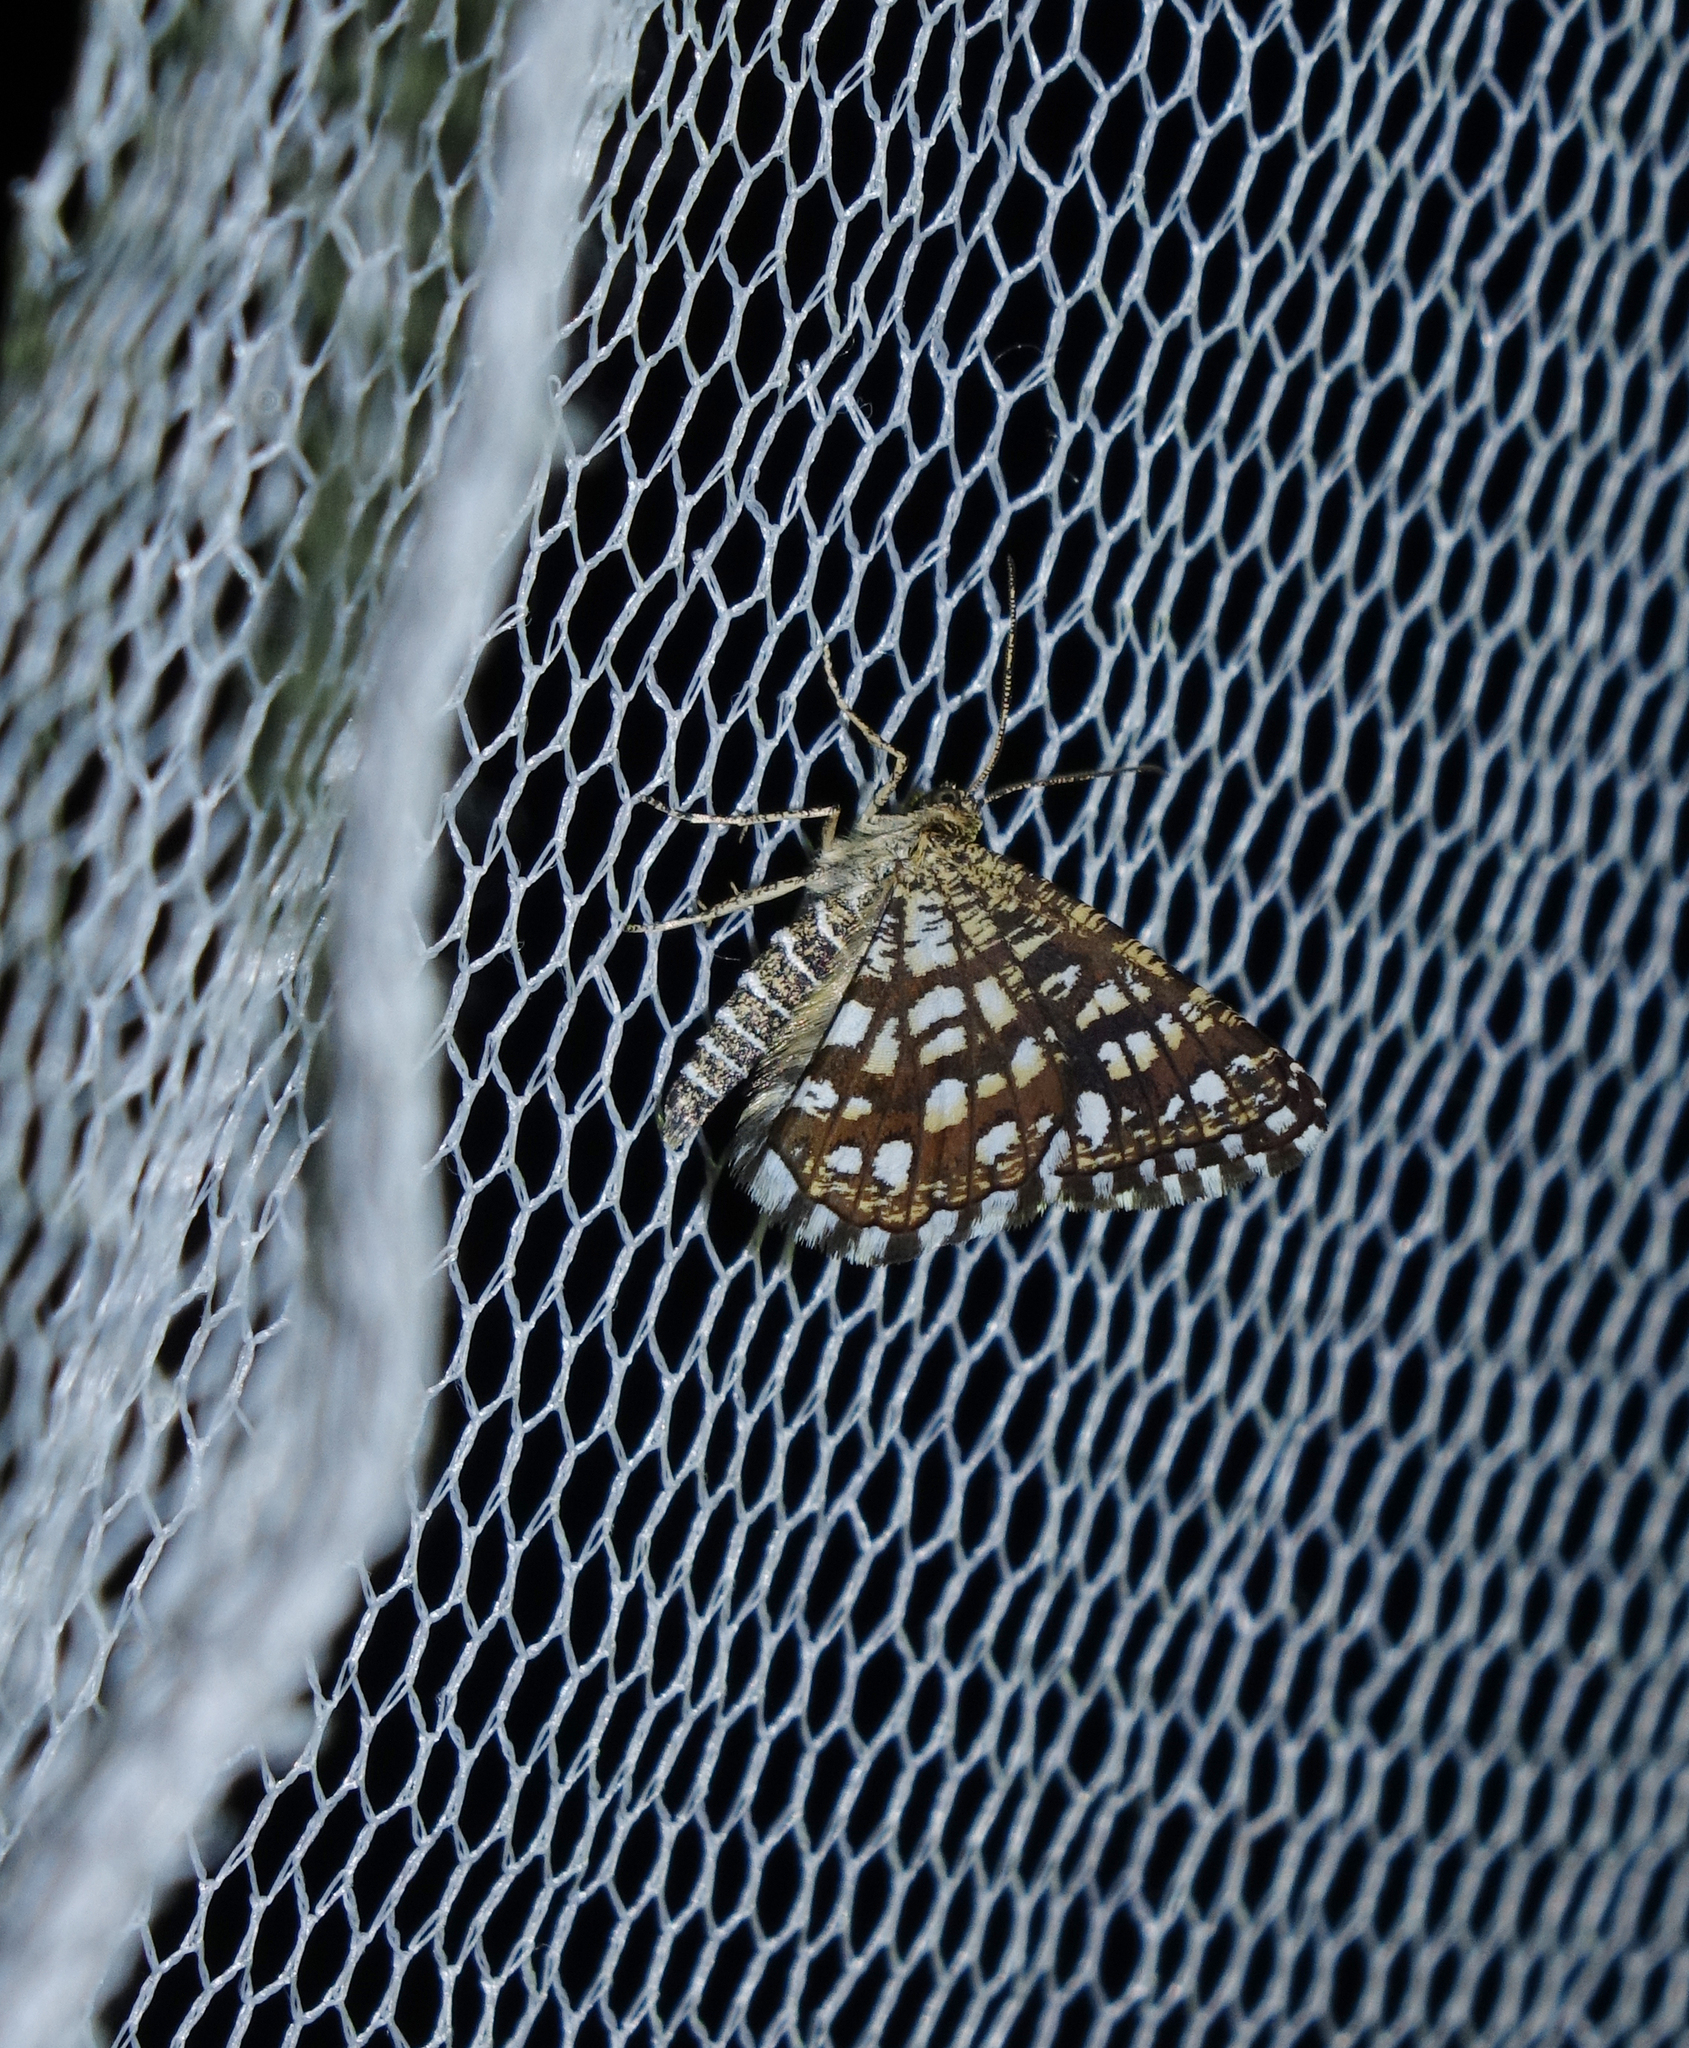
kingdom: Animalia
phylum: Arthropoda
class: Insecta
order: Lepidoptera
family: Geometridae
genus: Chiasmia
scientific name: Chiasmia clathrata
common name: Latticed heath
